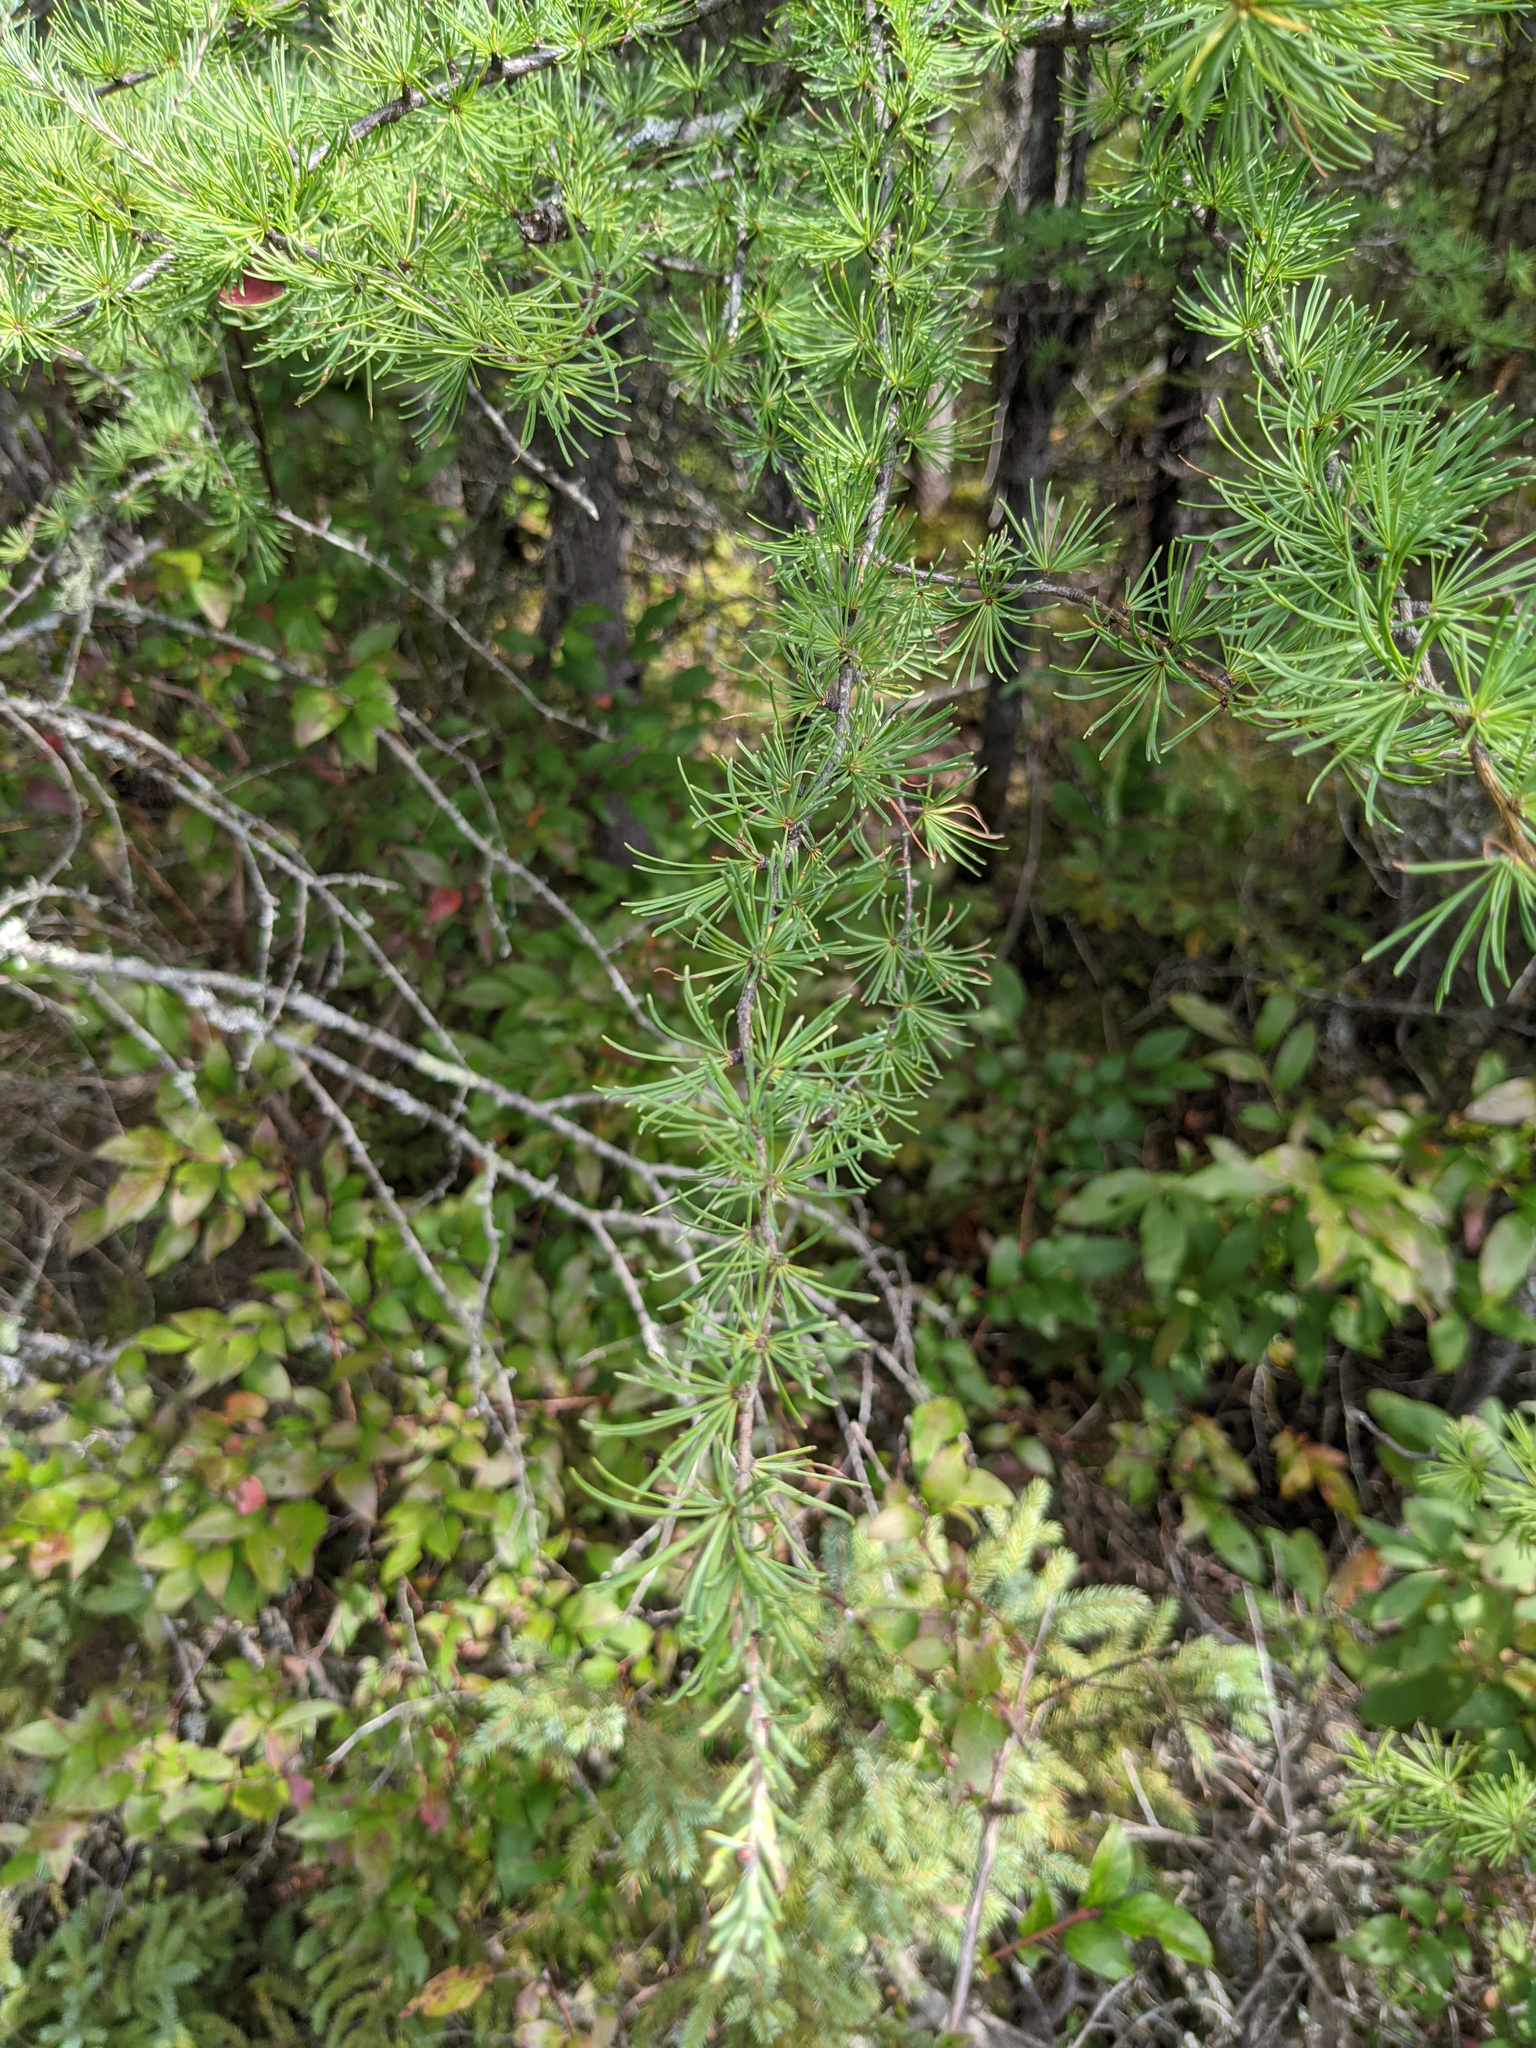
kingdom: Plantae
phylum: Tracheophyta
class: Pinopsida
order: Pinales
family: Pinaceae
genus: Larix
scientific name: Larix laricina
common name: American larch
